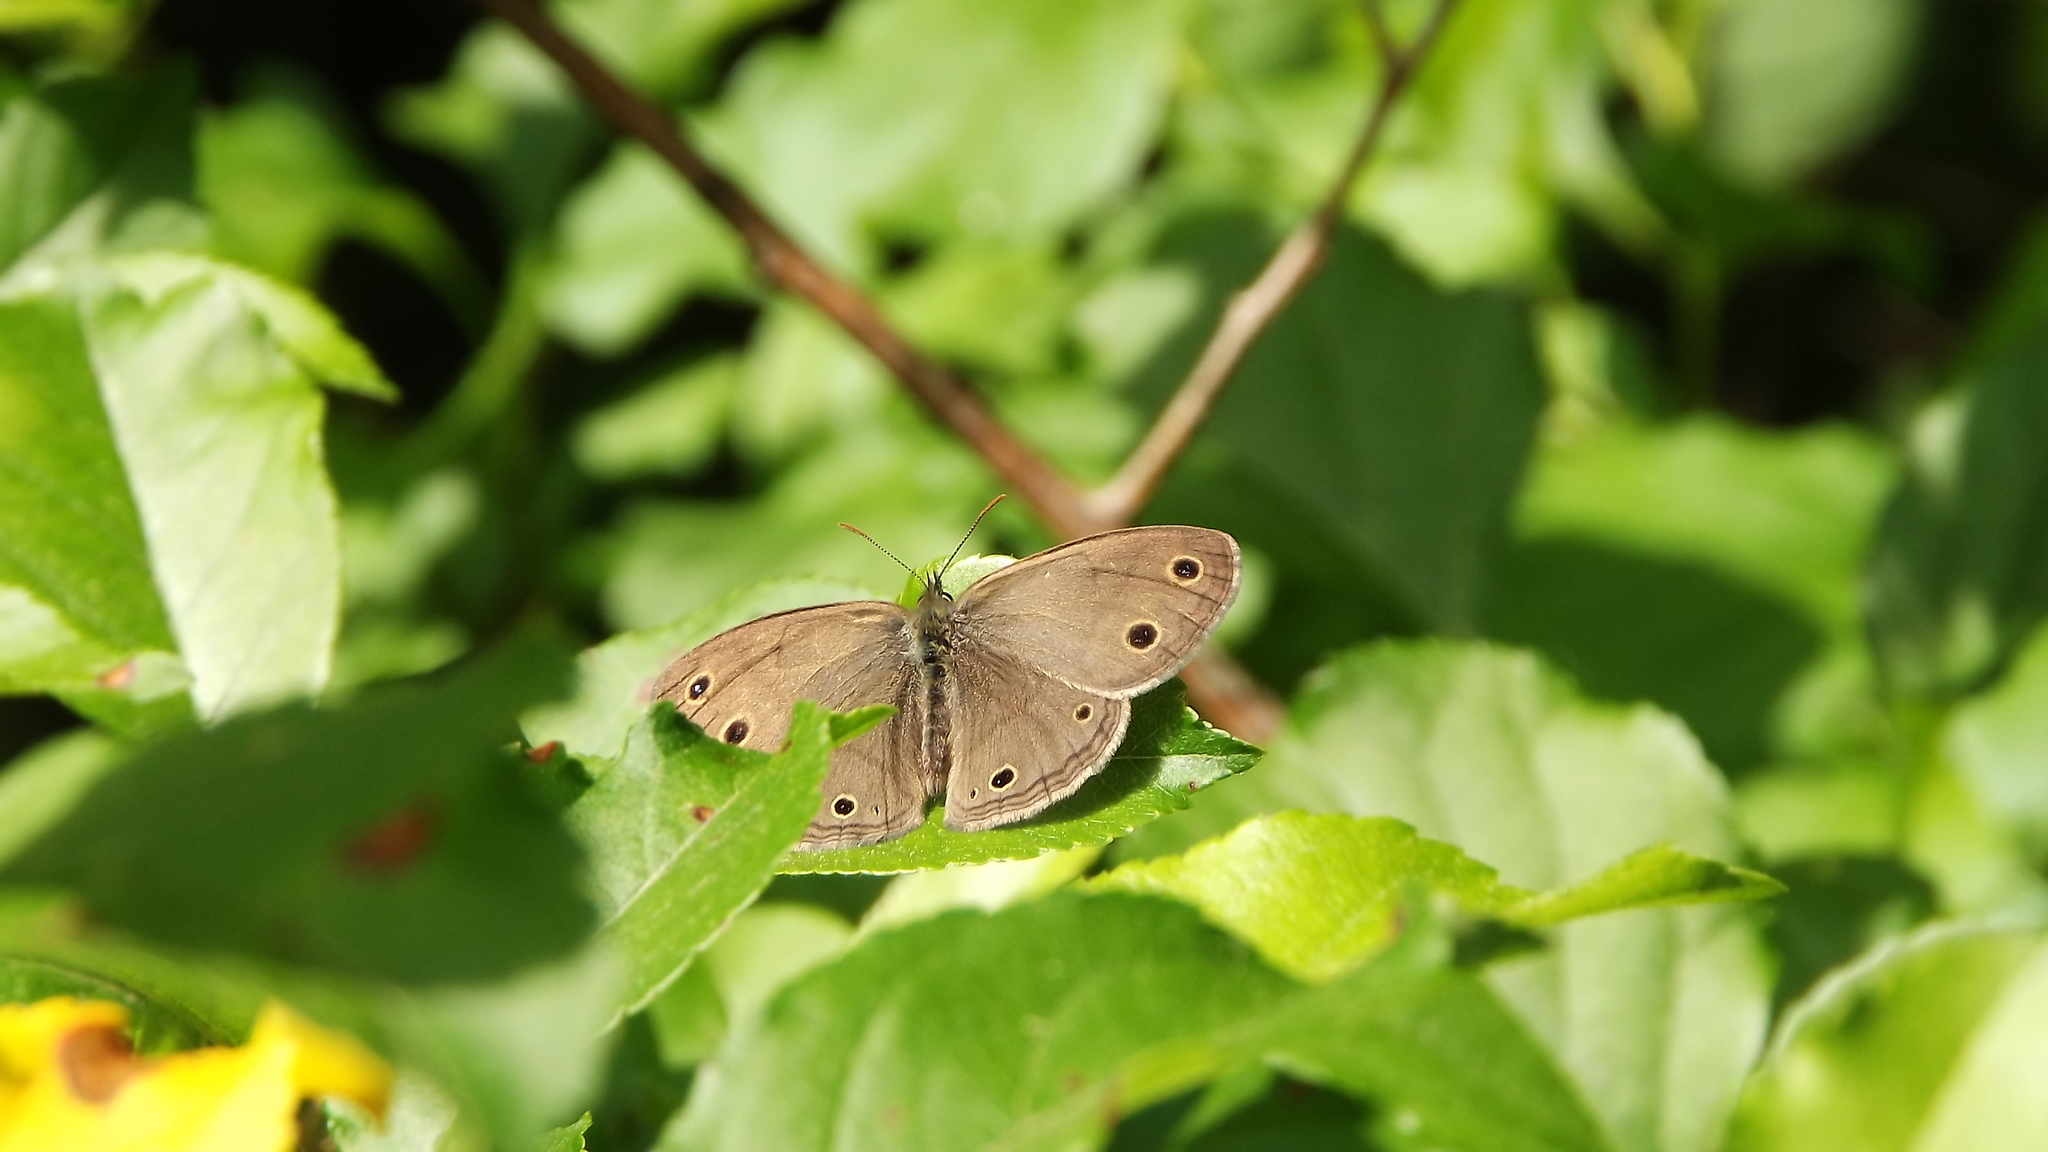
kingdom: Animalia
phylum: Arthropoda
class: Insecta
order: Lepidoptera
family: Nymphalidae
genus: Euptychia
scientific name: Euptychia cymela
